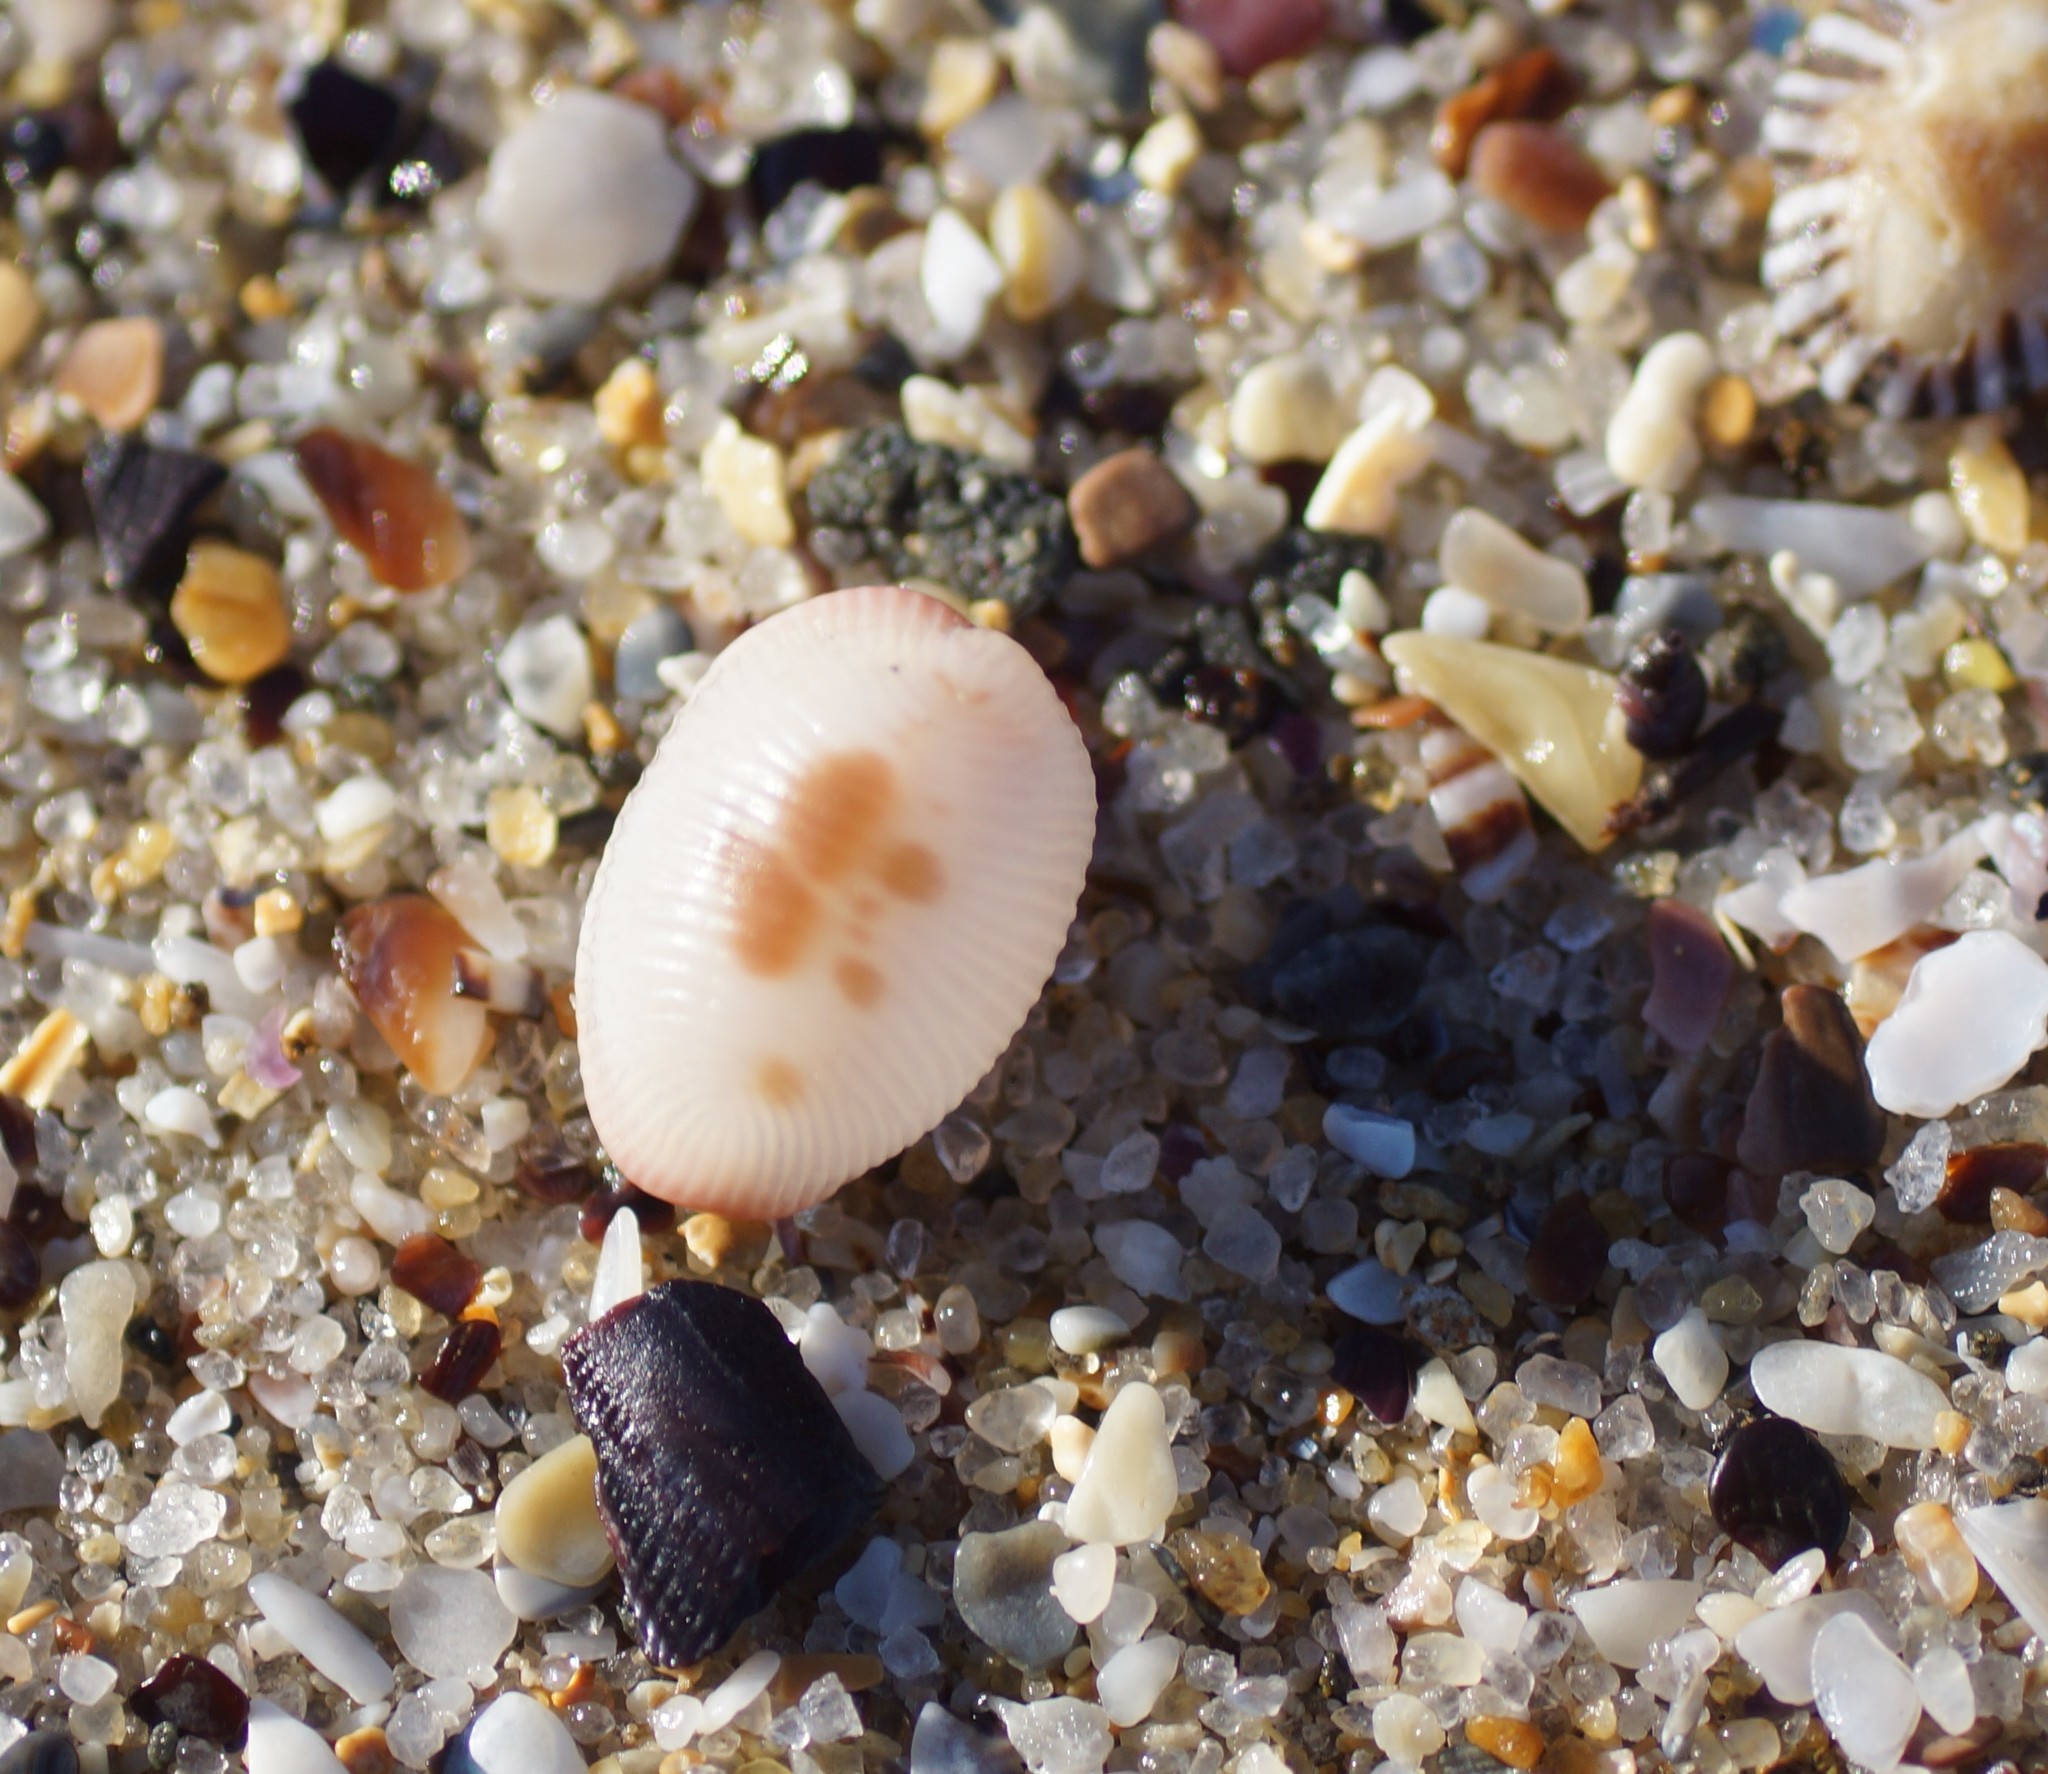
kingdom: Animalia
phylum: Mollusca
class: Gastropoda
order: Littorinimorpha
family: Triviidae
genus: Ellatrivia
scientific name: Ellatrivia merces
